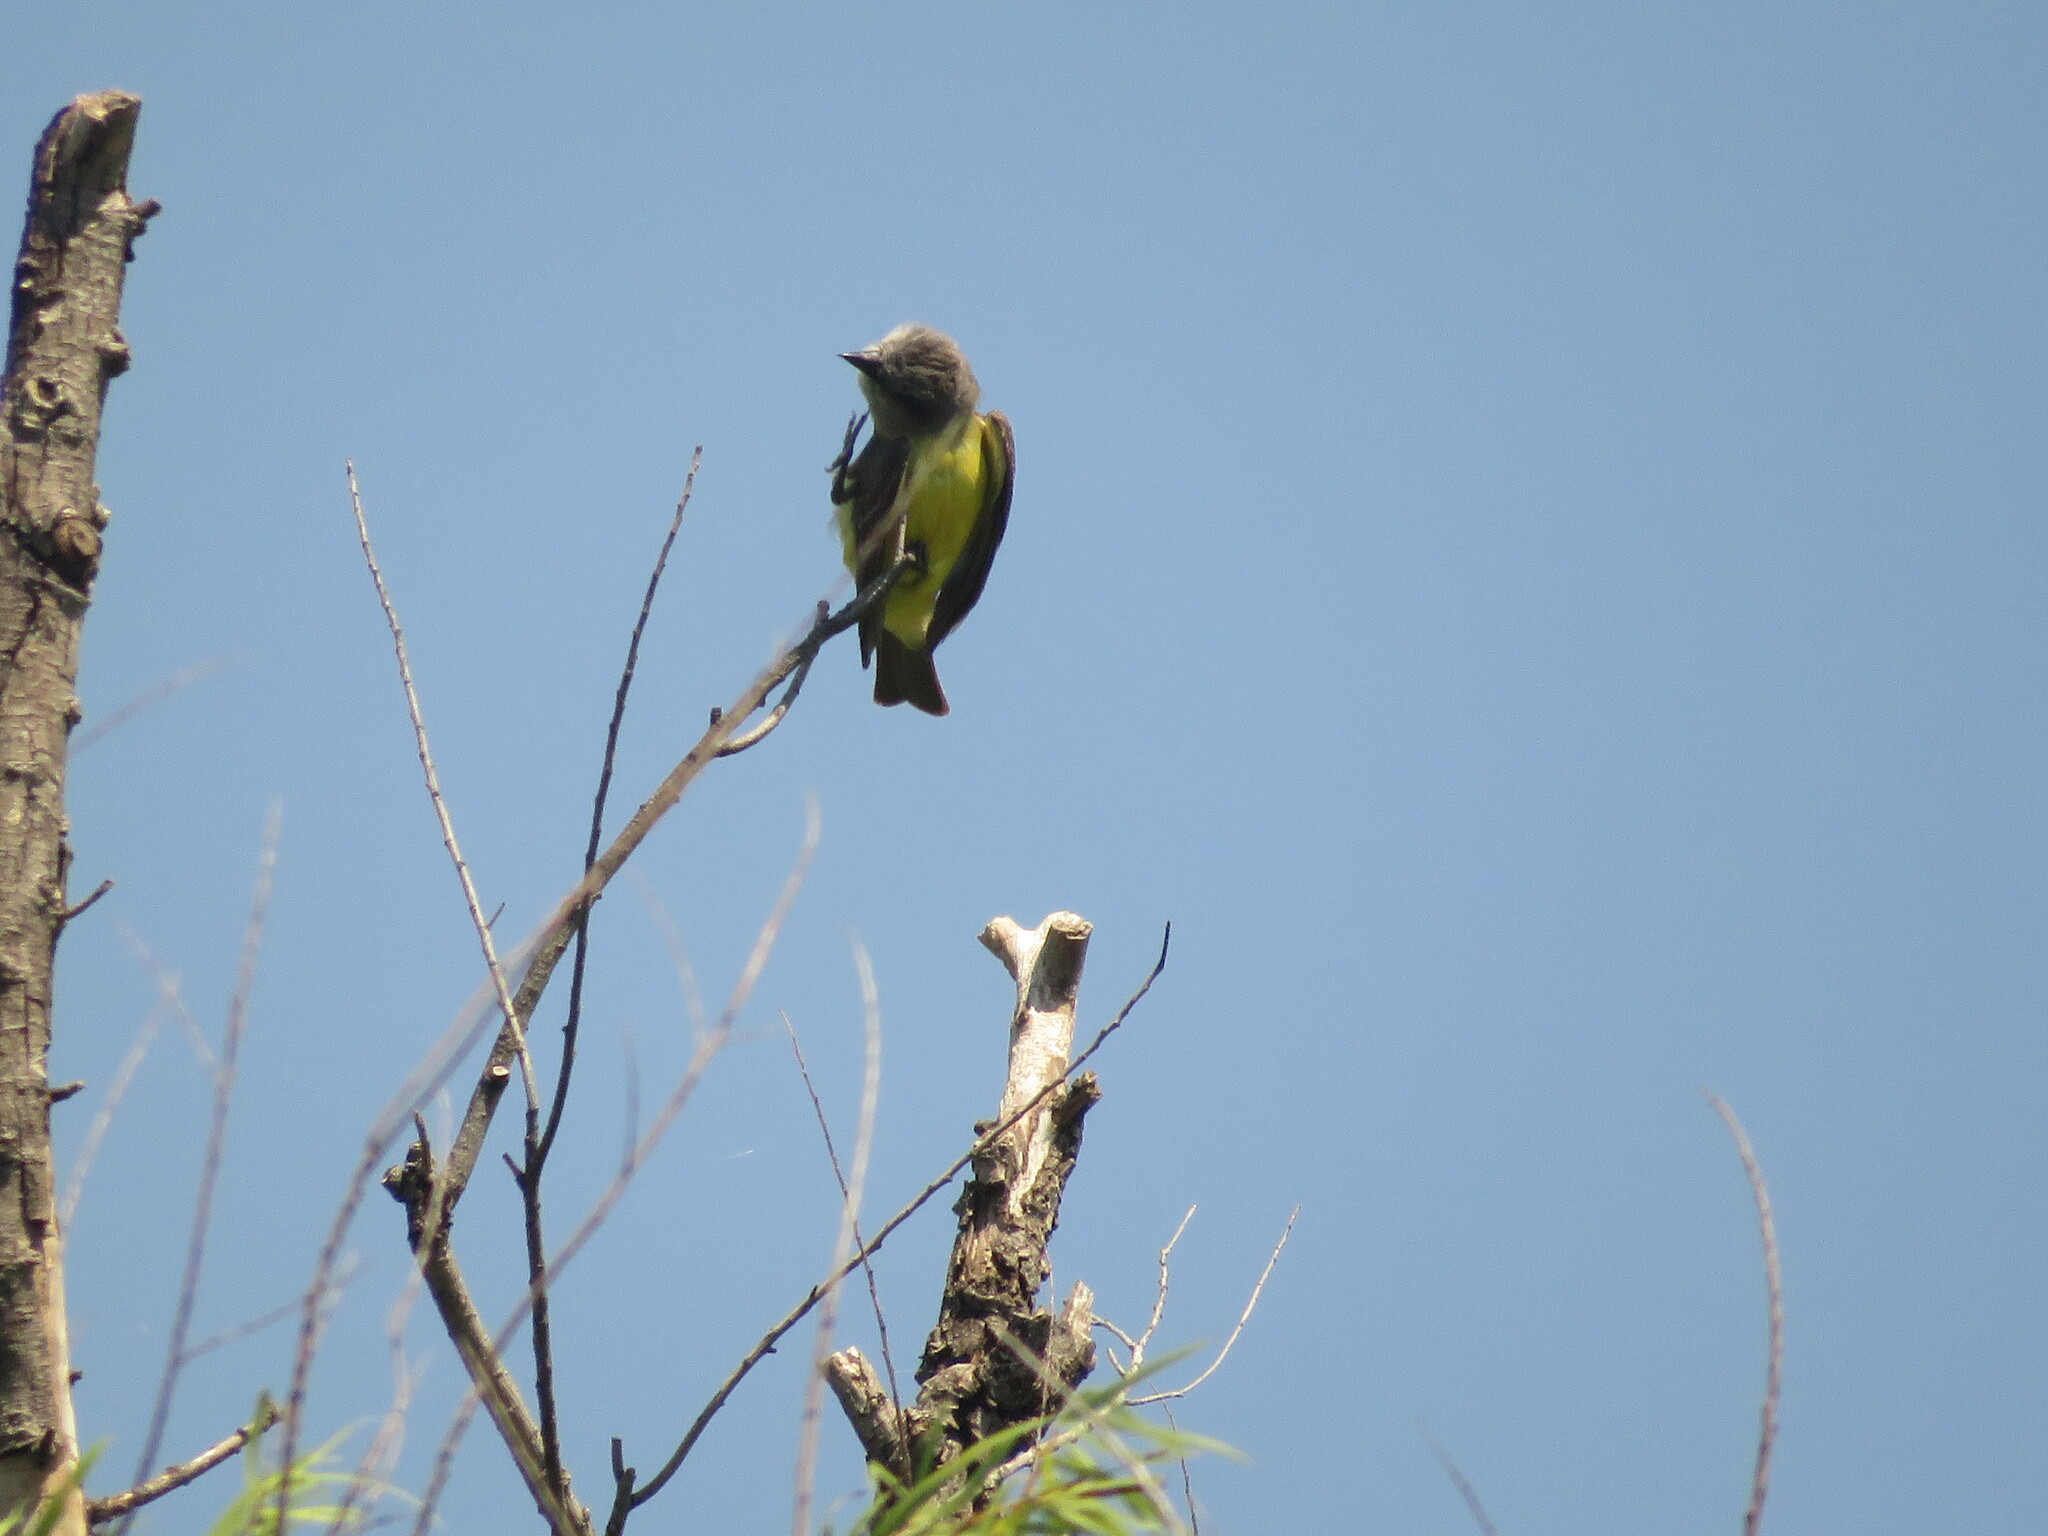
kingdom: Animalia
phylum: Chordata
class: Aves
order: Passeriformes
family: Tyrannidae
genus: Tyrannus
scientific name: Tyrannus melancholicus
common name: Tropical kingbird
